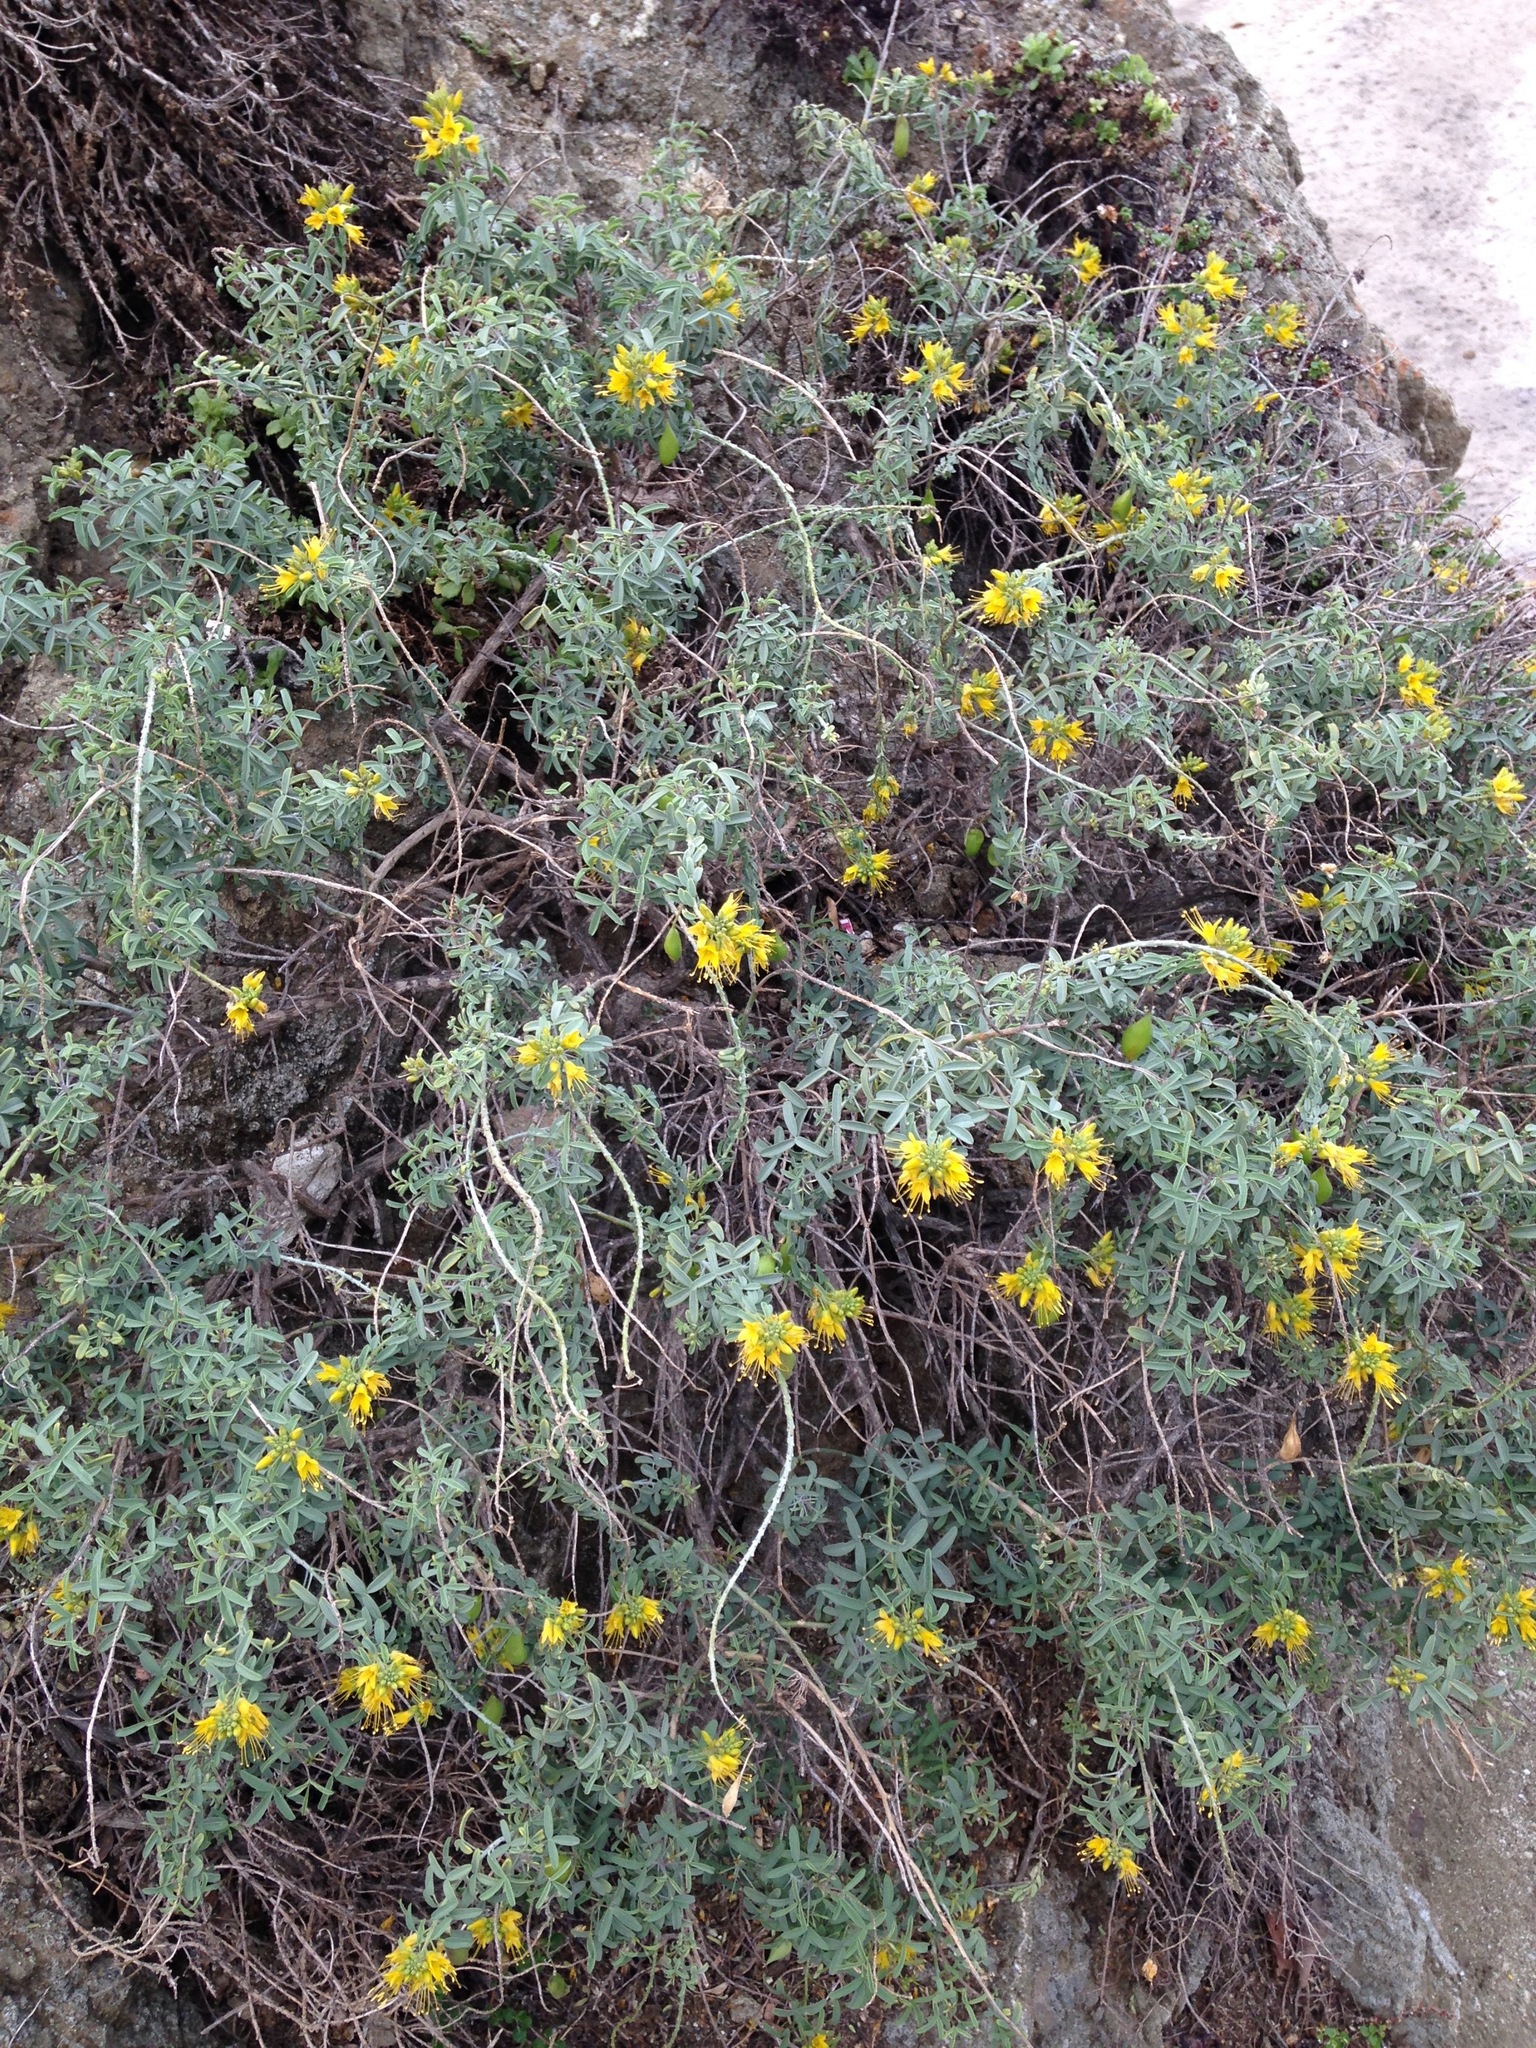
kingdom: Plantae
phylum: Tracheophyta
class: Magnoliopsida
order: Brassicales
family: Cleomaceae
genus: Cleomella
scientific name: Cleomella arborea
